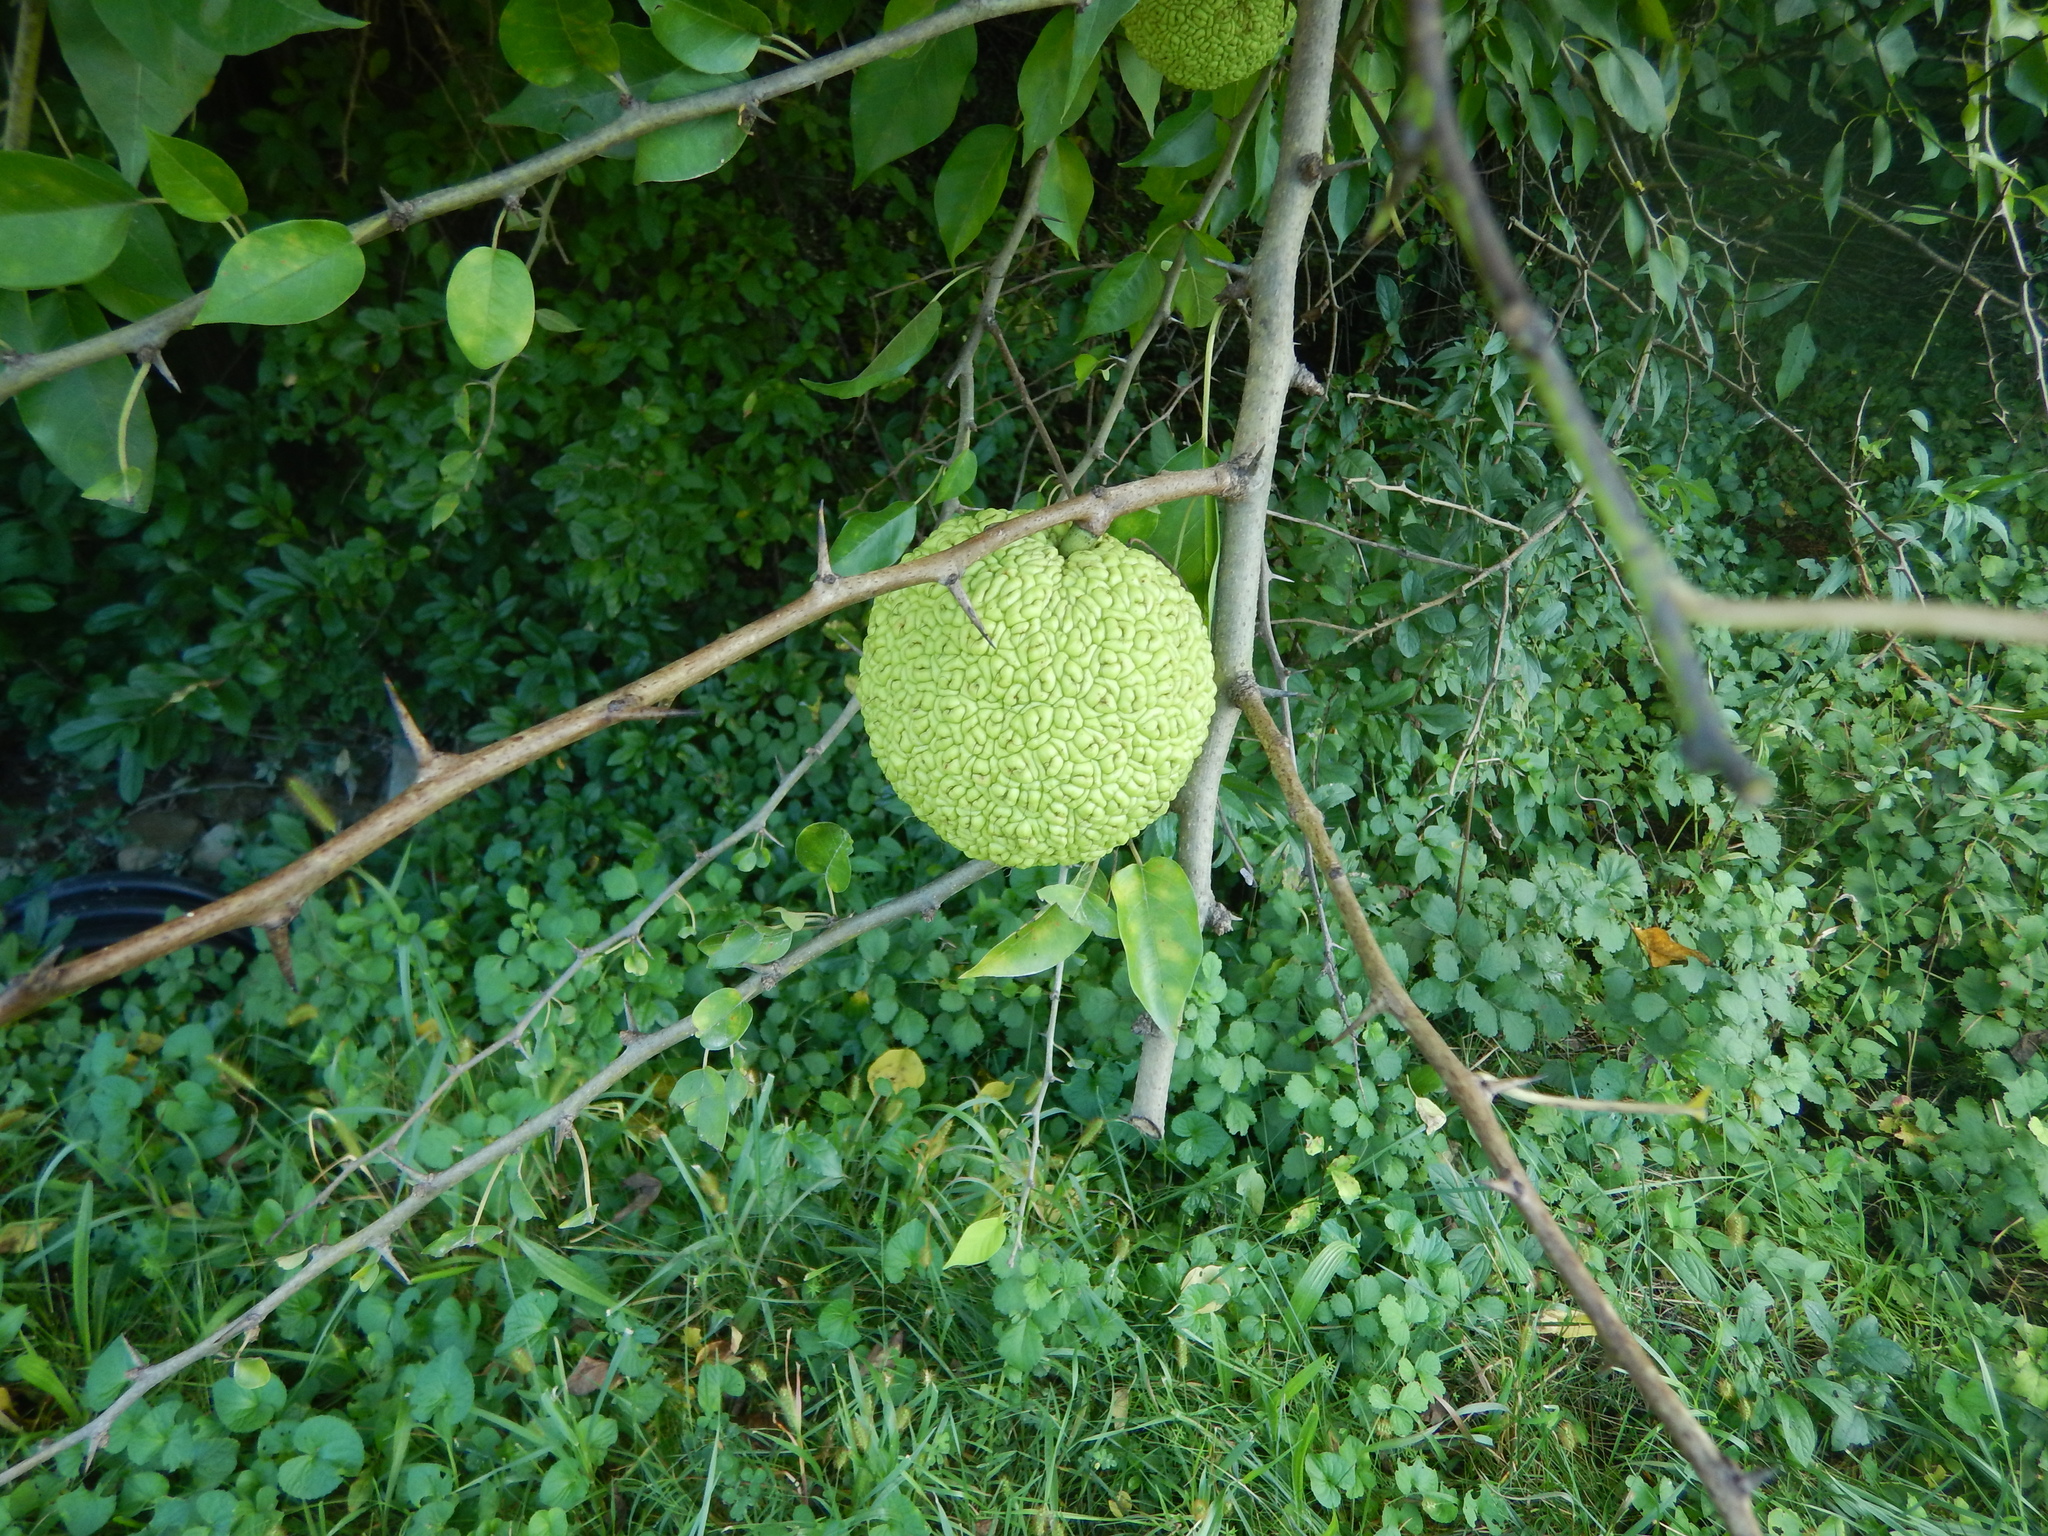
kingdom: Plantae
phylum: Tracheophyta
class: Magnoliopsida
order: Rosales
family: Moraceae
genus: Maclura
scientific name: Maclura pomifera
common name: Osage-orange
